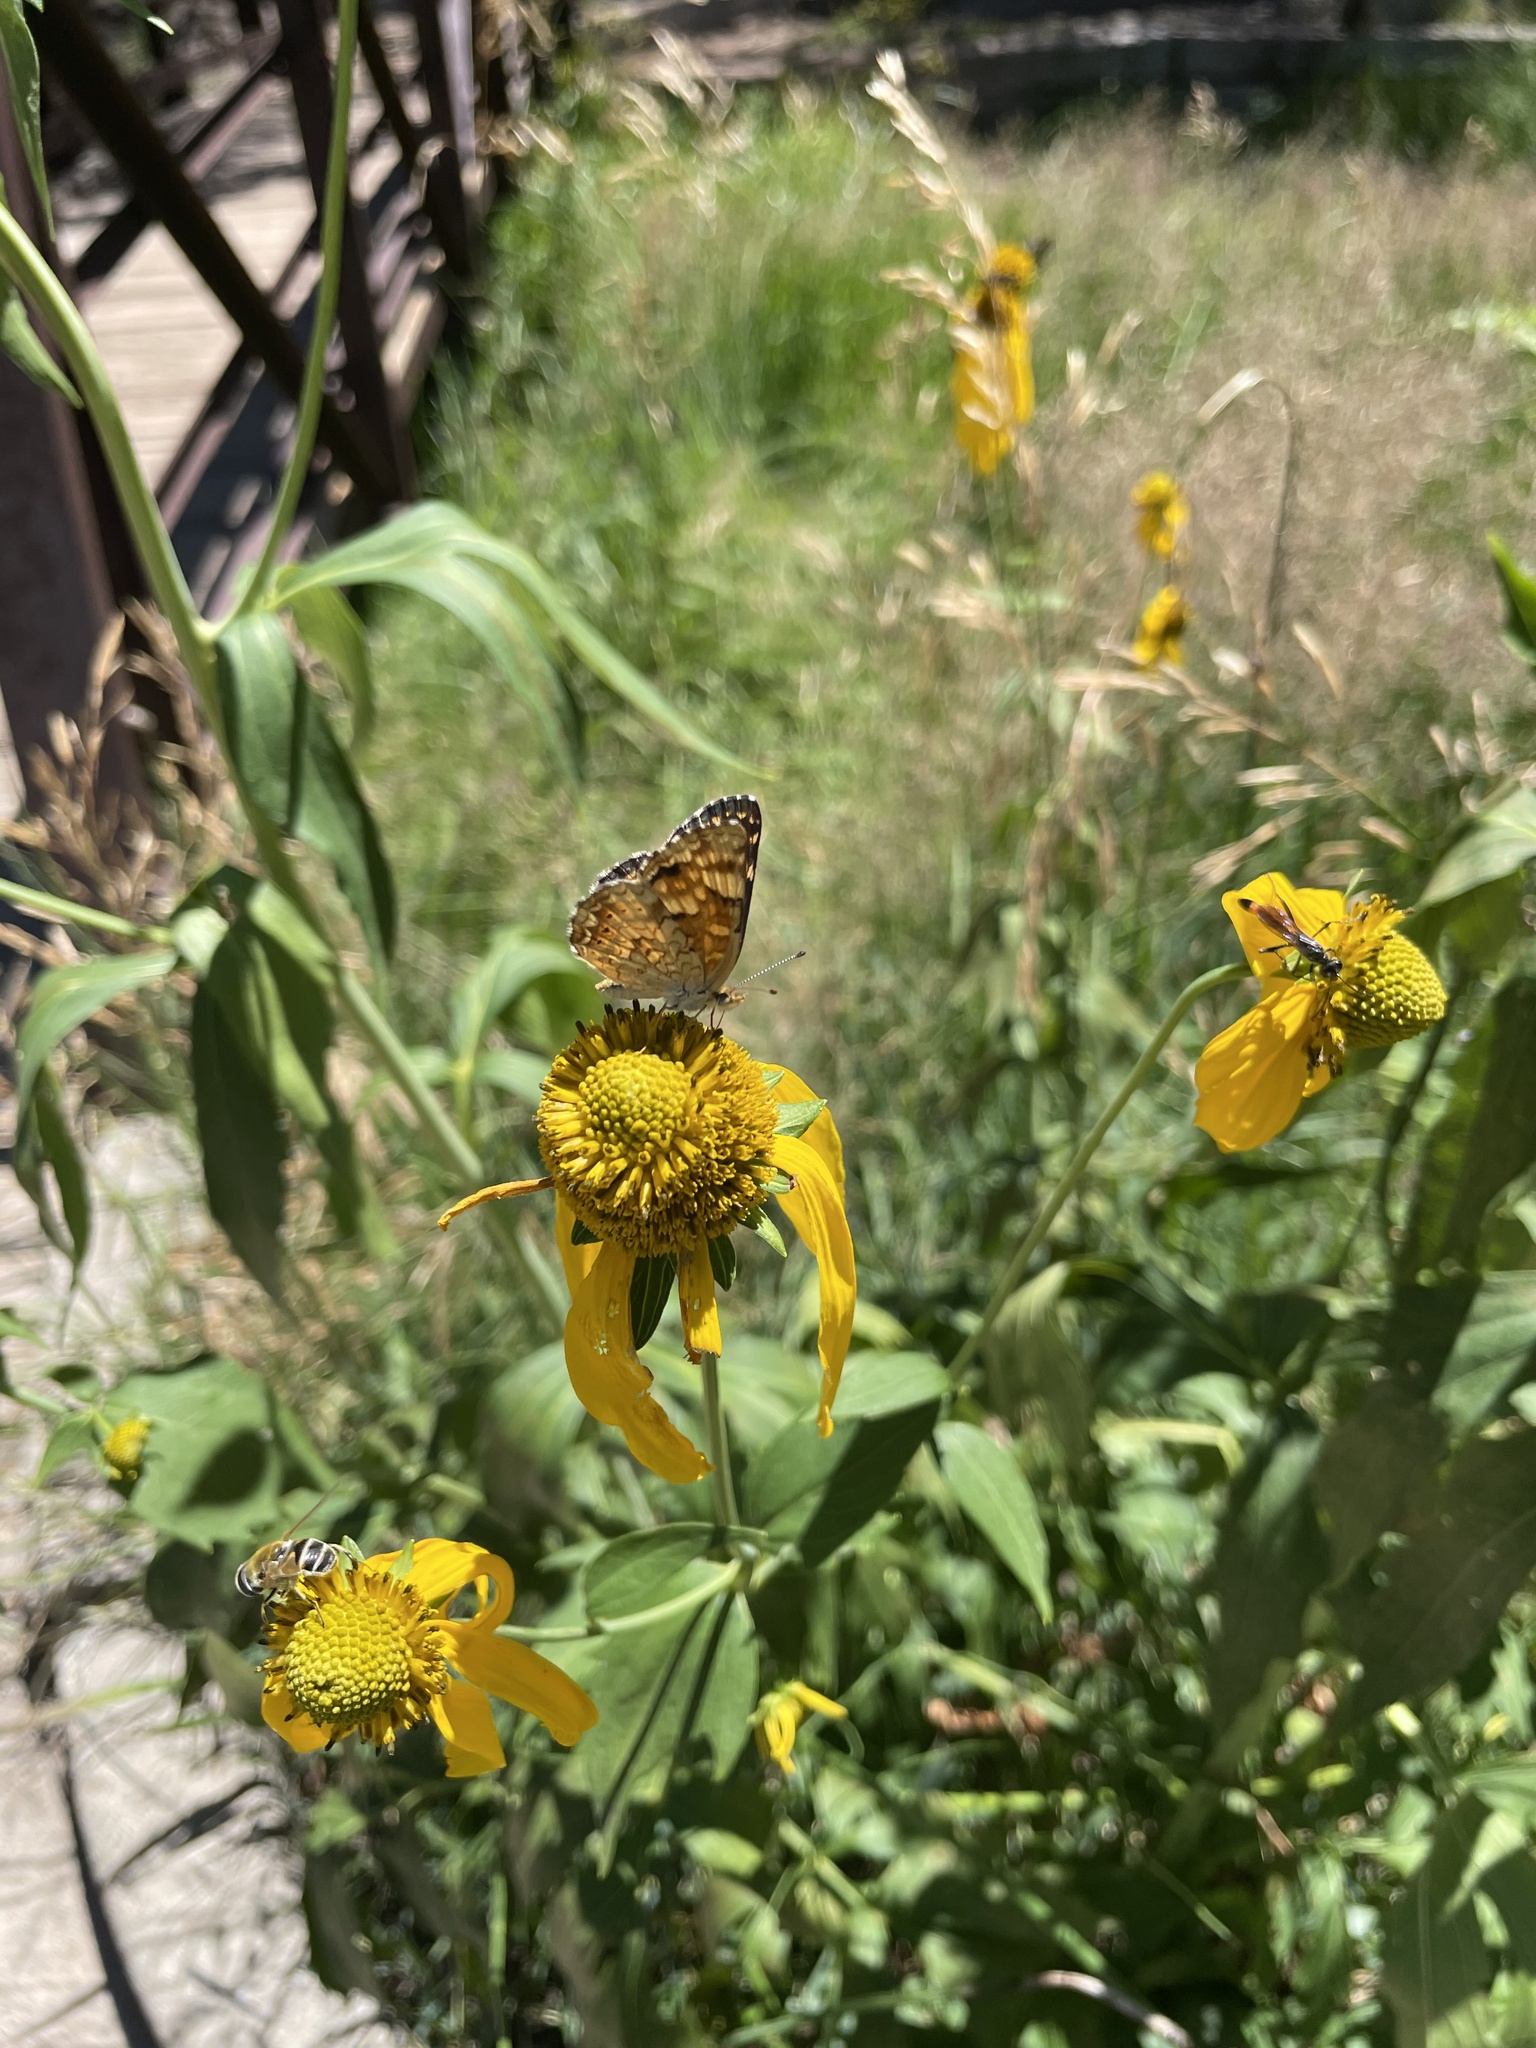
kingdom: Animalia
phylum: Arthropoda
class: Insecta
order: Lepidoptera
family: Nymphalidae
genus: Phyciodes
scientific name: Phyciodes tharos
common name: Pearl crescent
